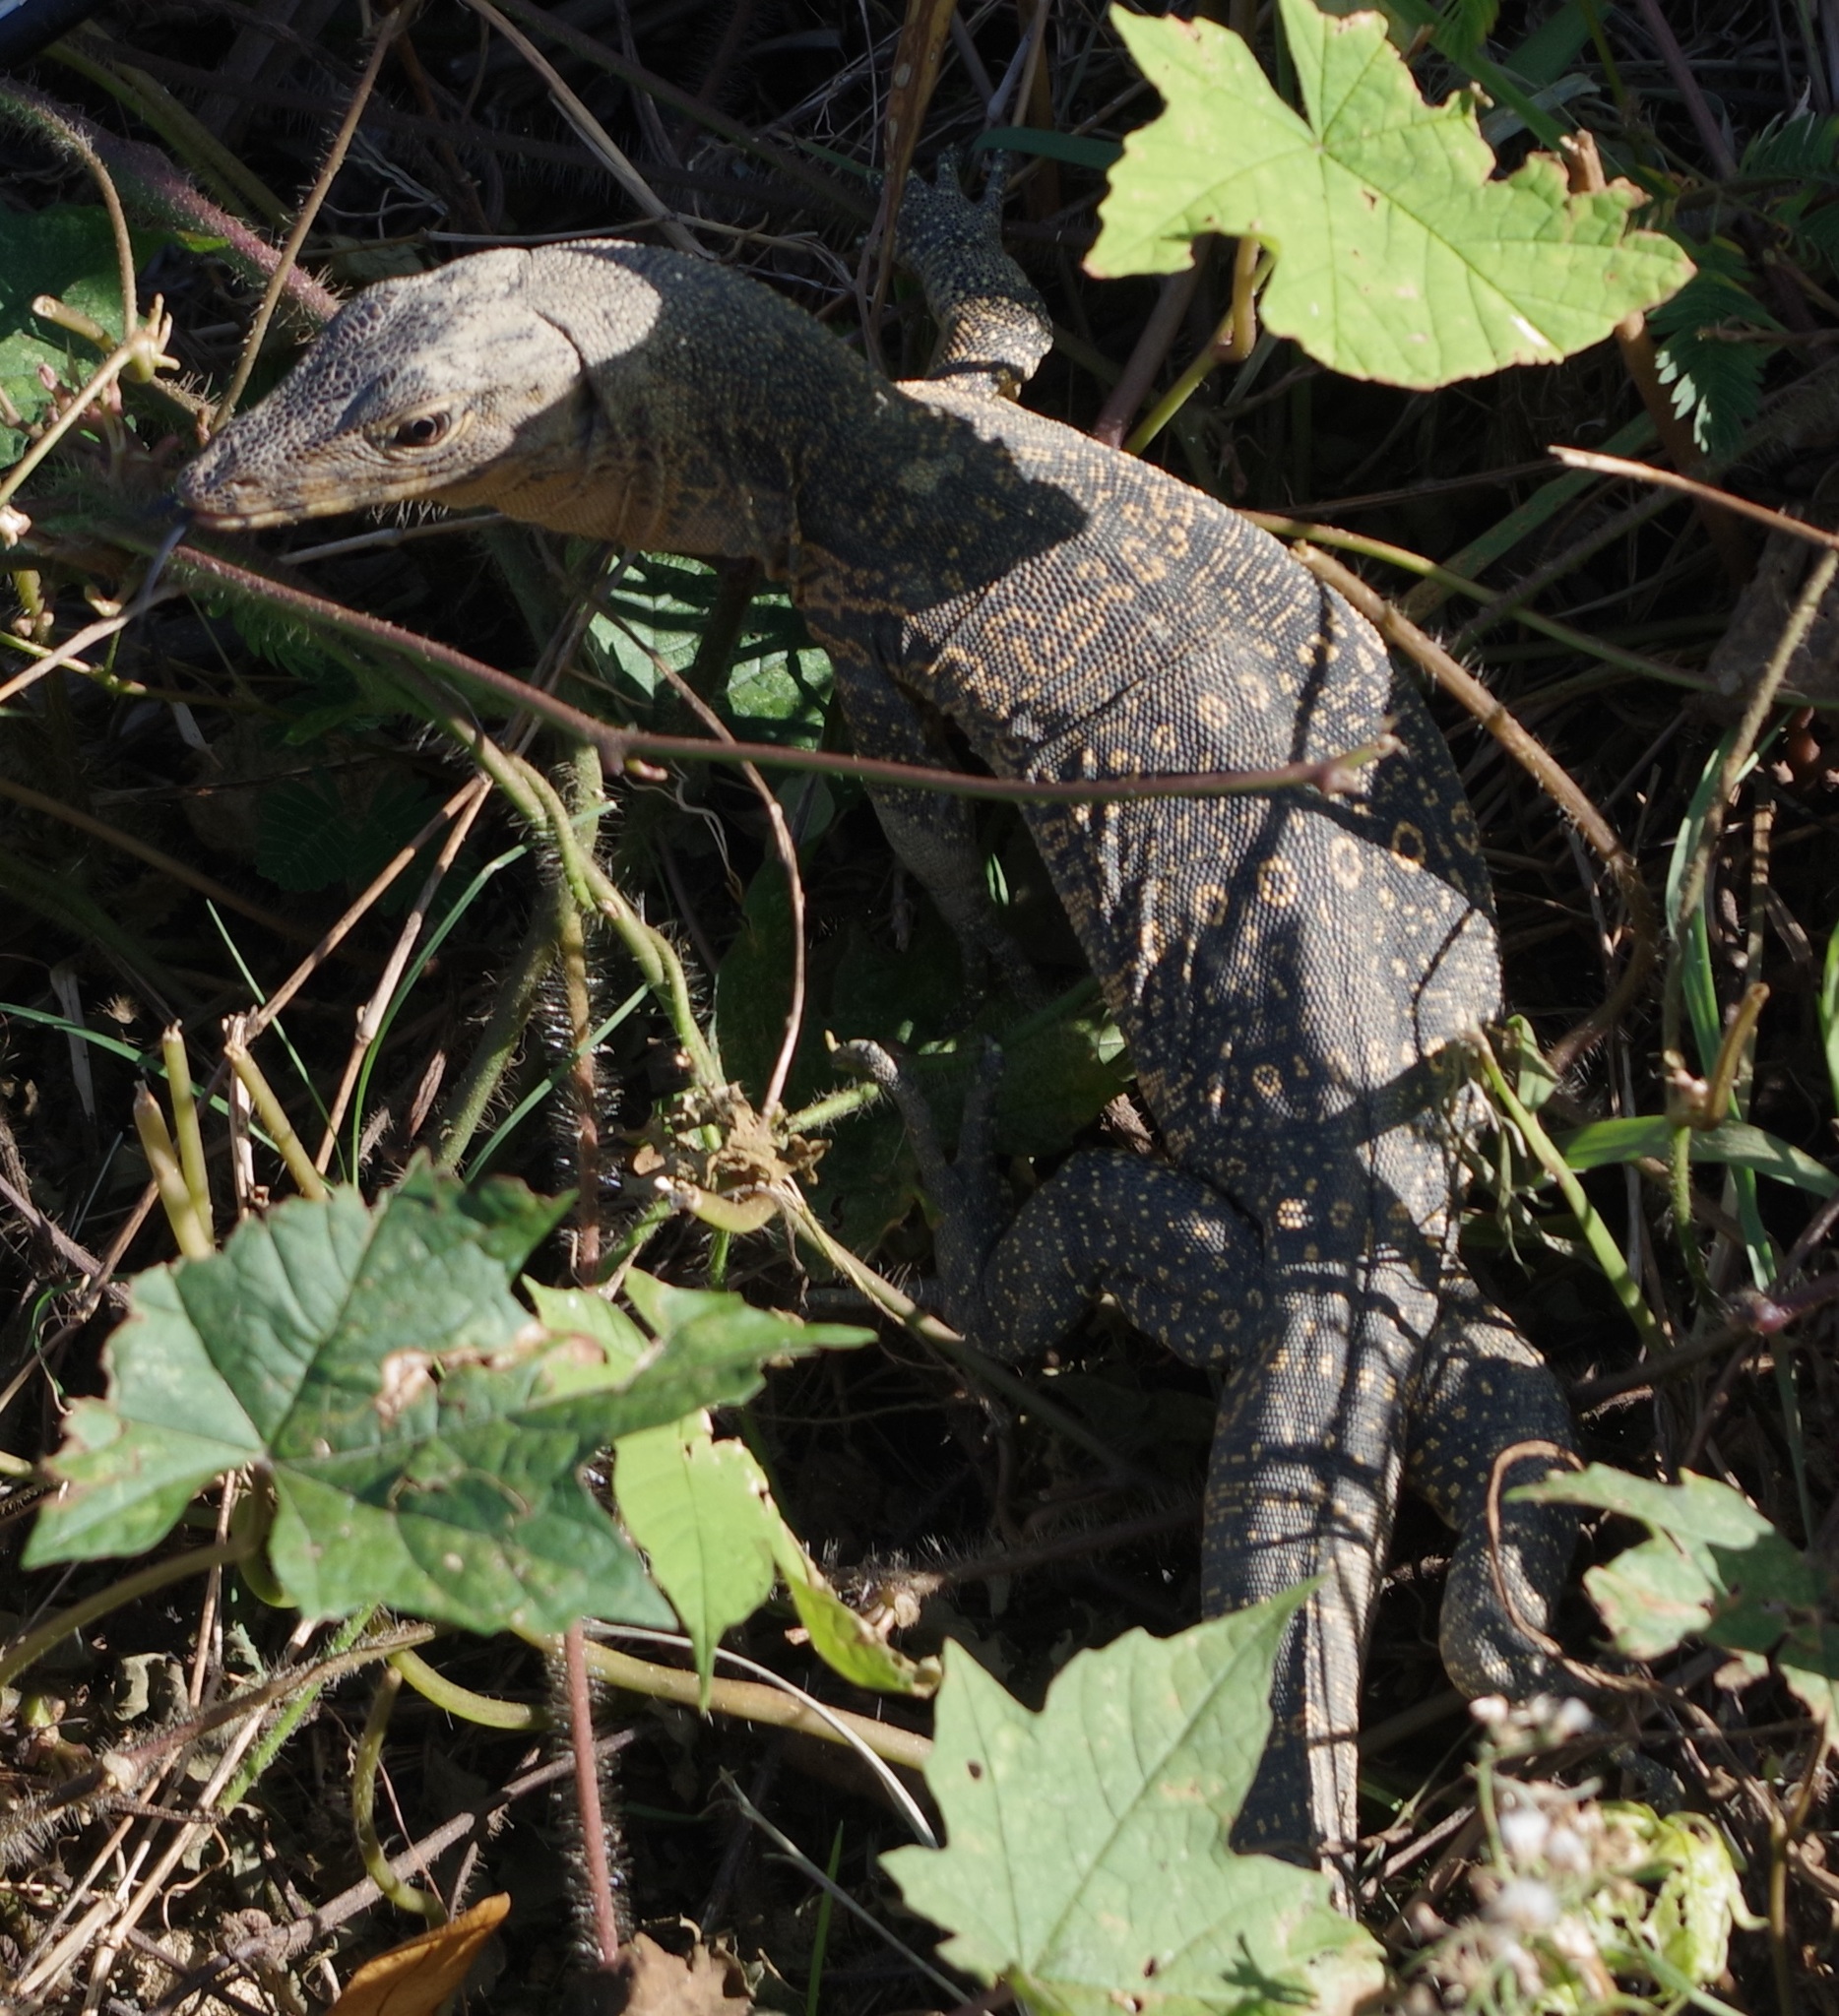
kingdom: Animalia
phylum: Chordata
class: Squamata
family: Varanidae
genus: Varanus
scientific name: Varanus salvator
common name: Common water monitor
